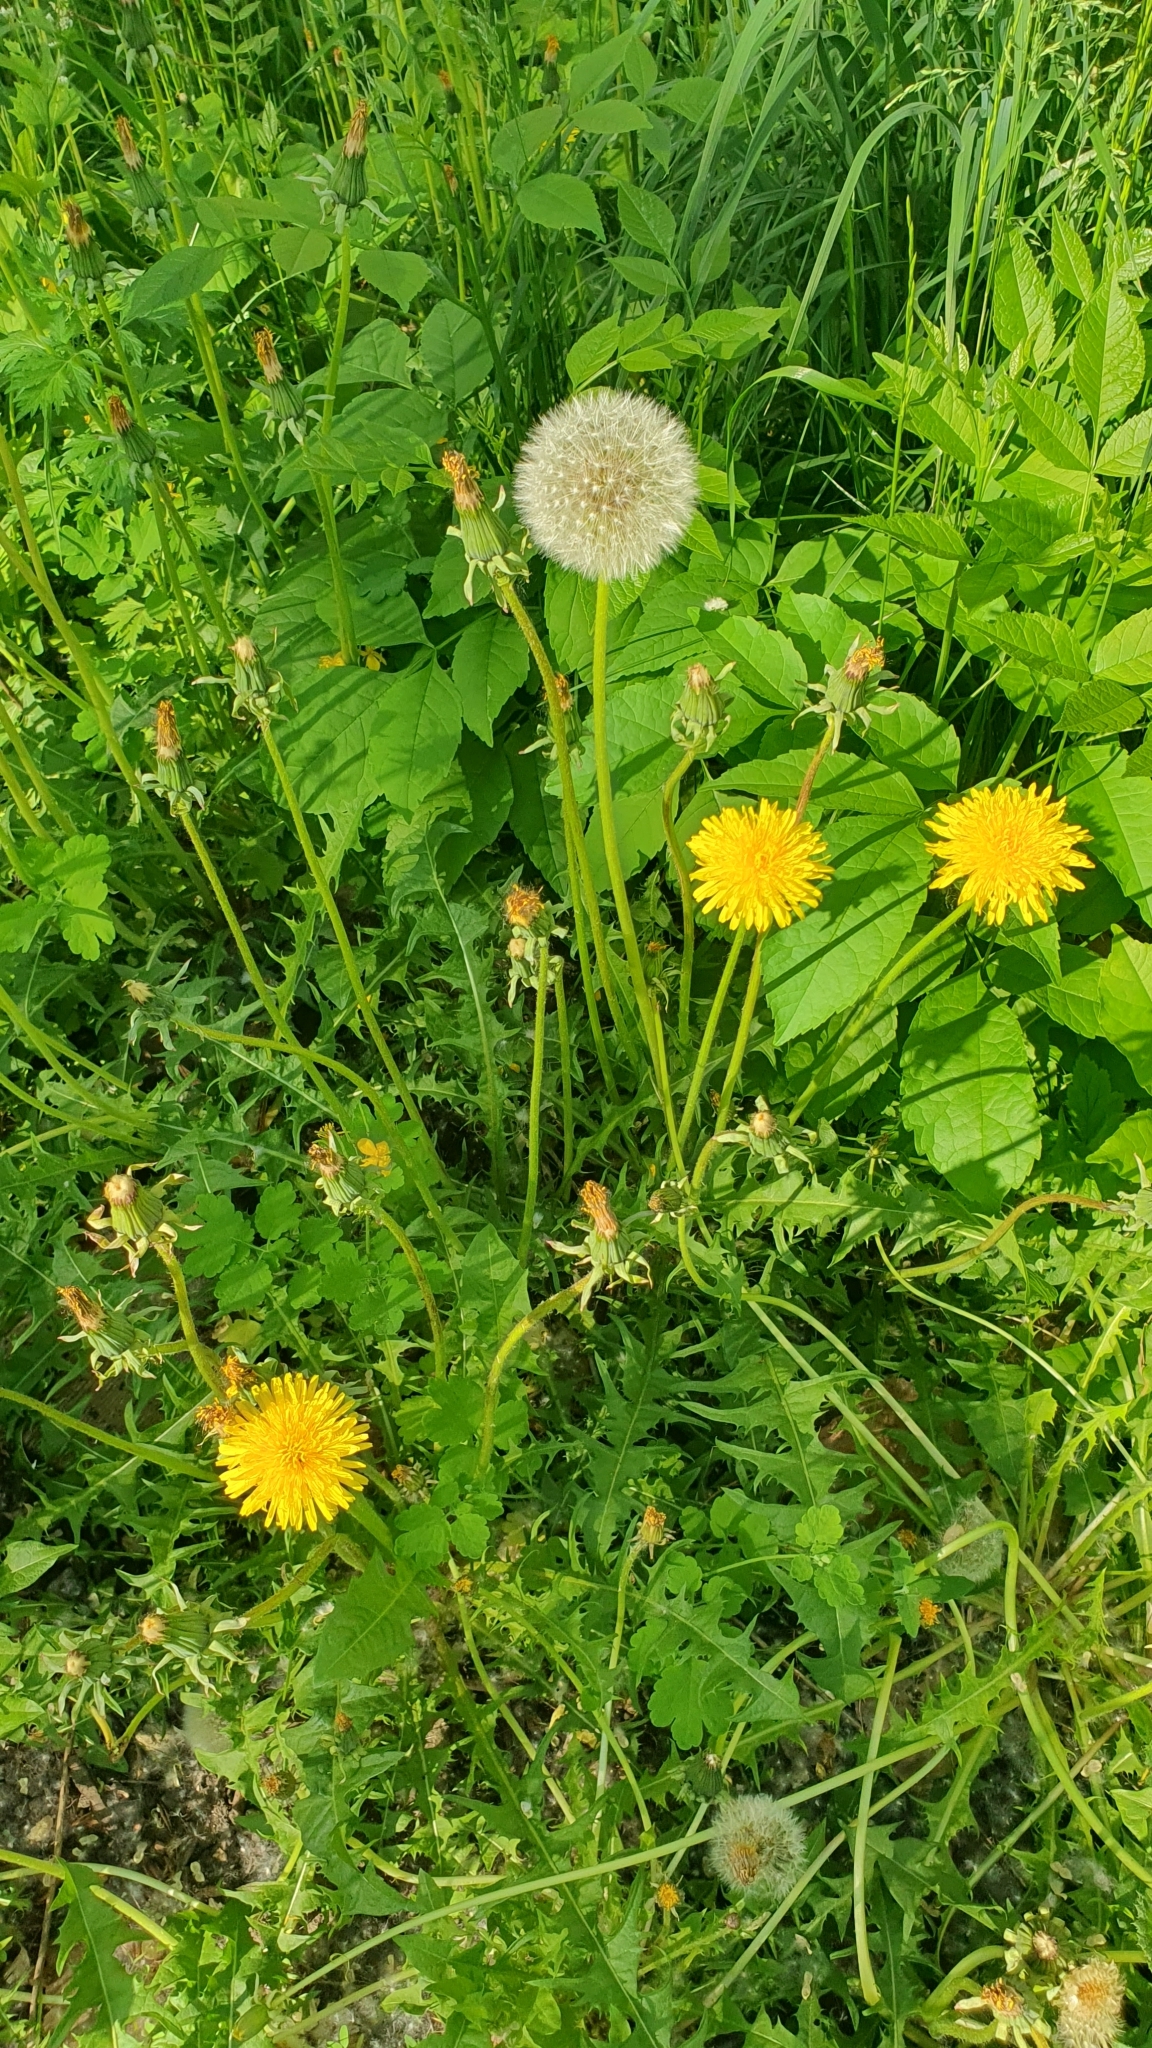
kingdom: Plantae
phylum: Tracheophyta
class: Magnoliopsida
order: Asterales
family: Asteraceae
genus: Taraxacum
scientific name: Taraxacum officinale
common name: Common dandelion
